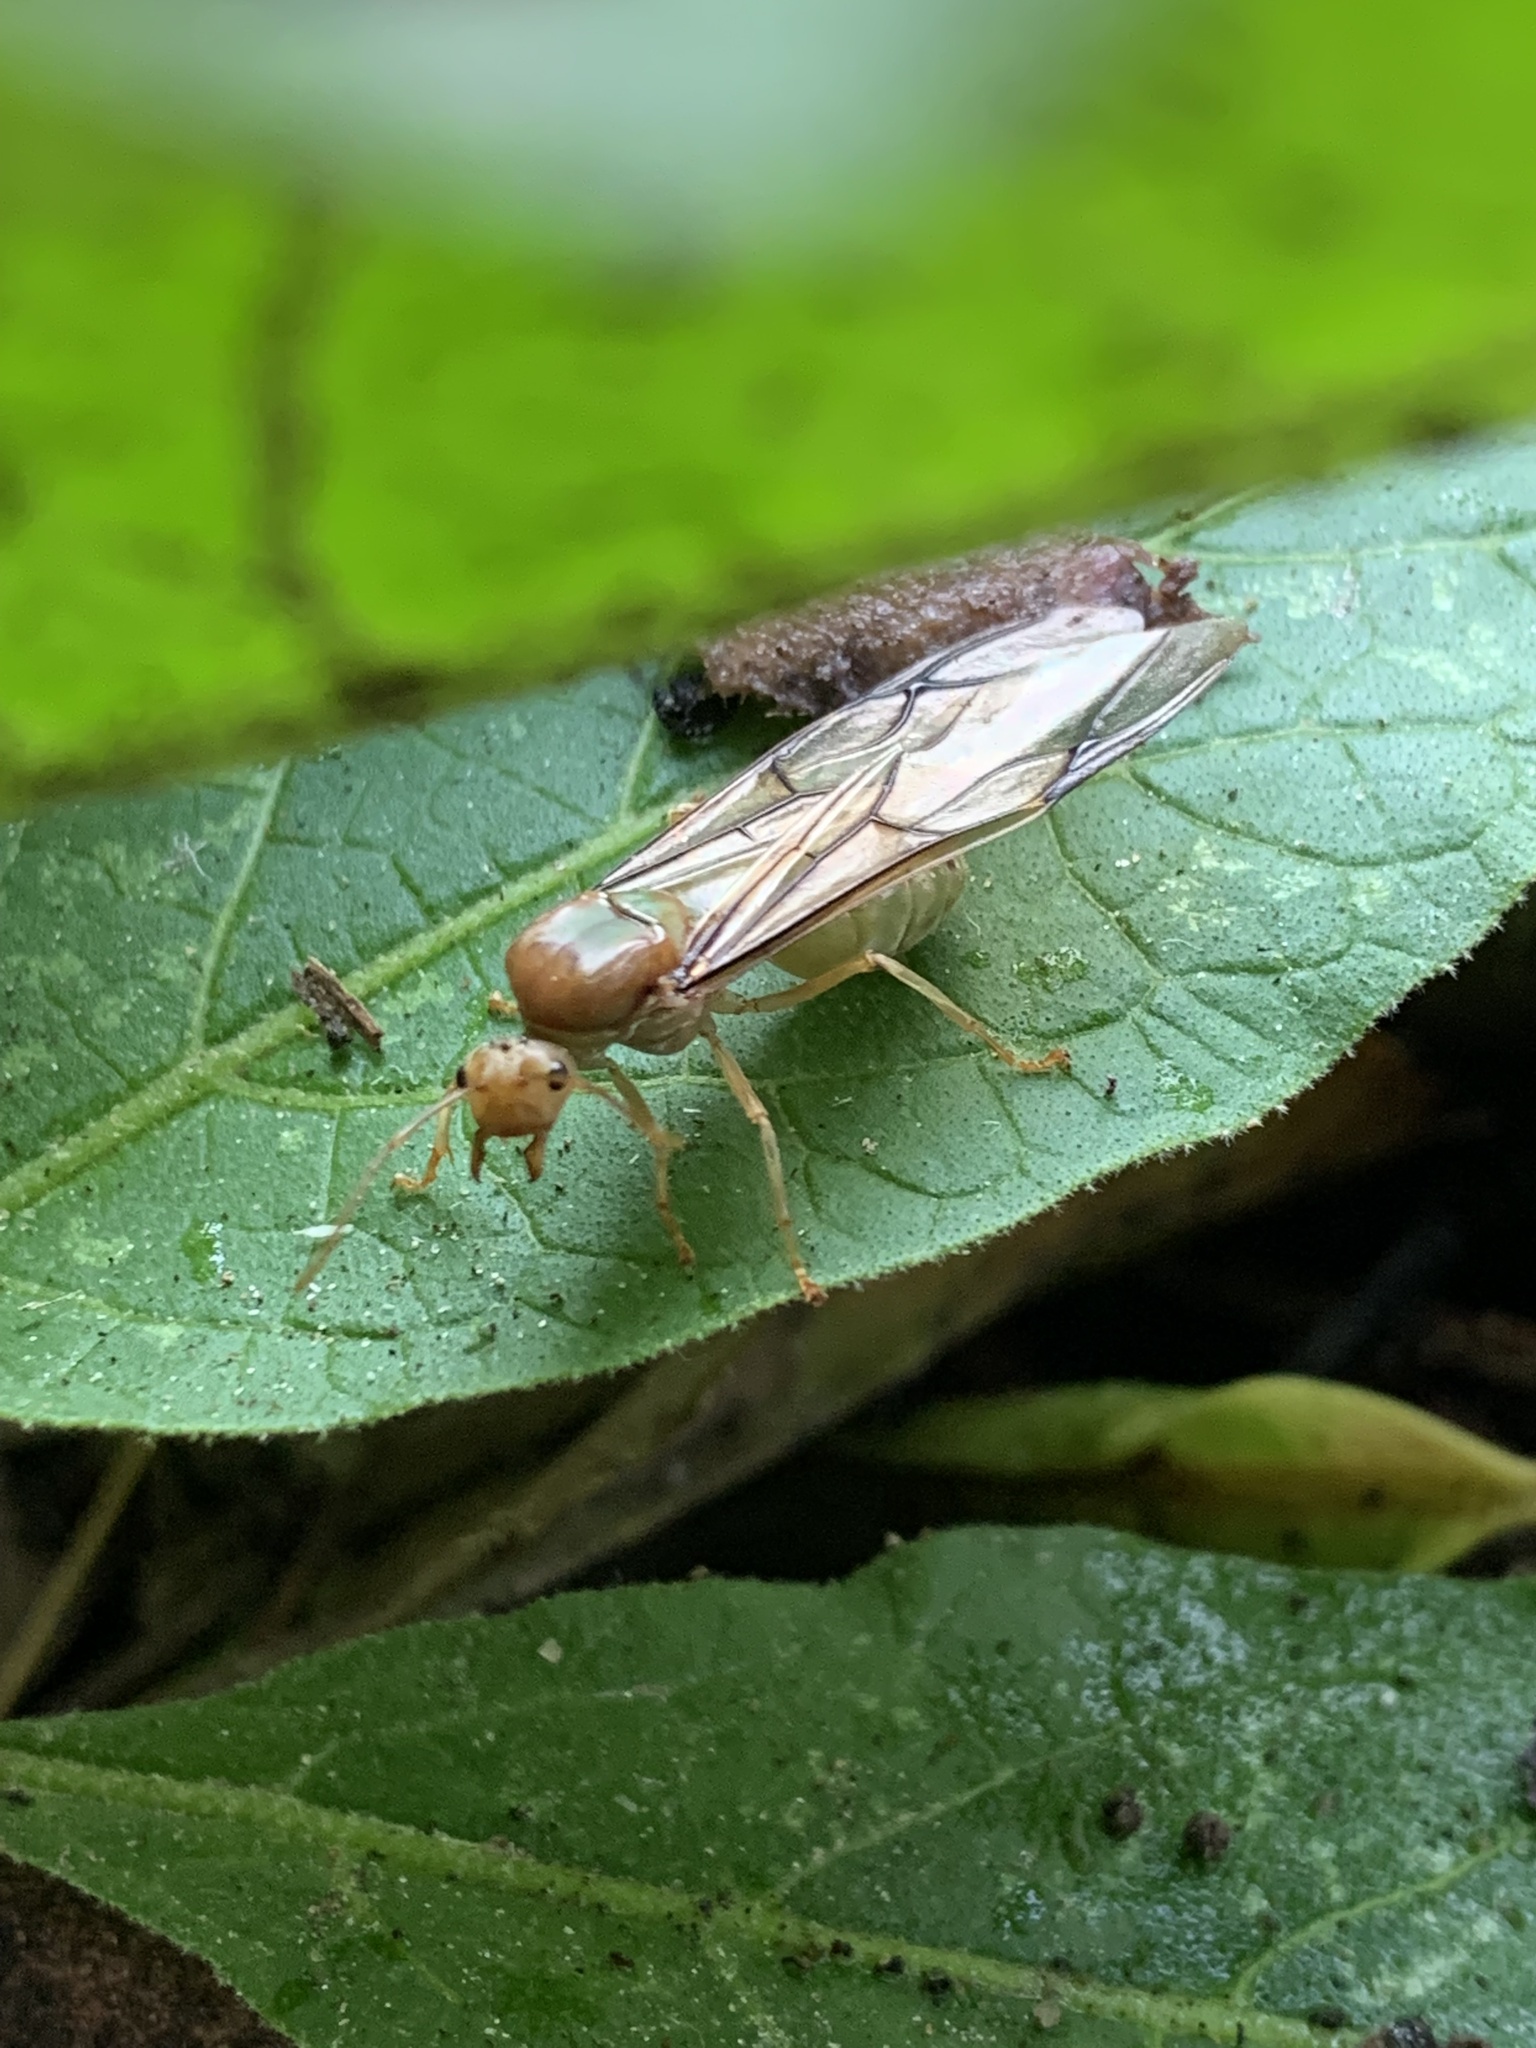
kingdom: Animalia
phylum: Arthropoda
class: Insecta
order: Hymenoptera
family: Formicidae
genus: Oecophylla
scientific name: Oecophylla smaragdina
